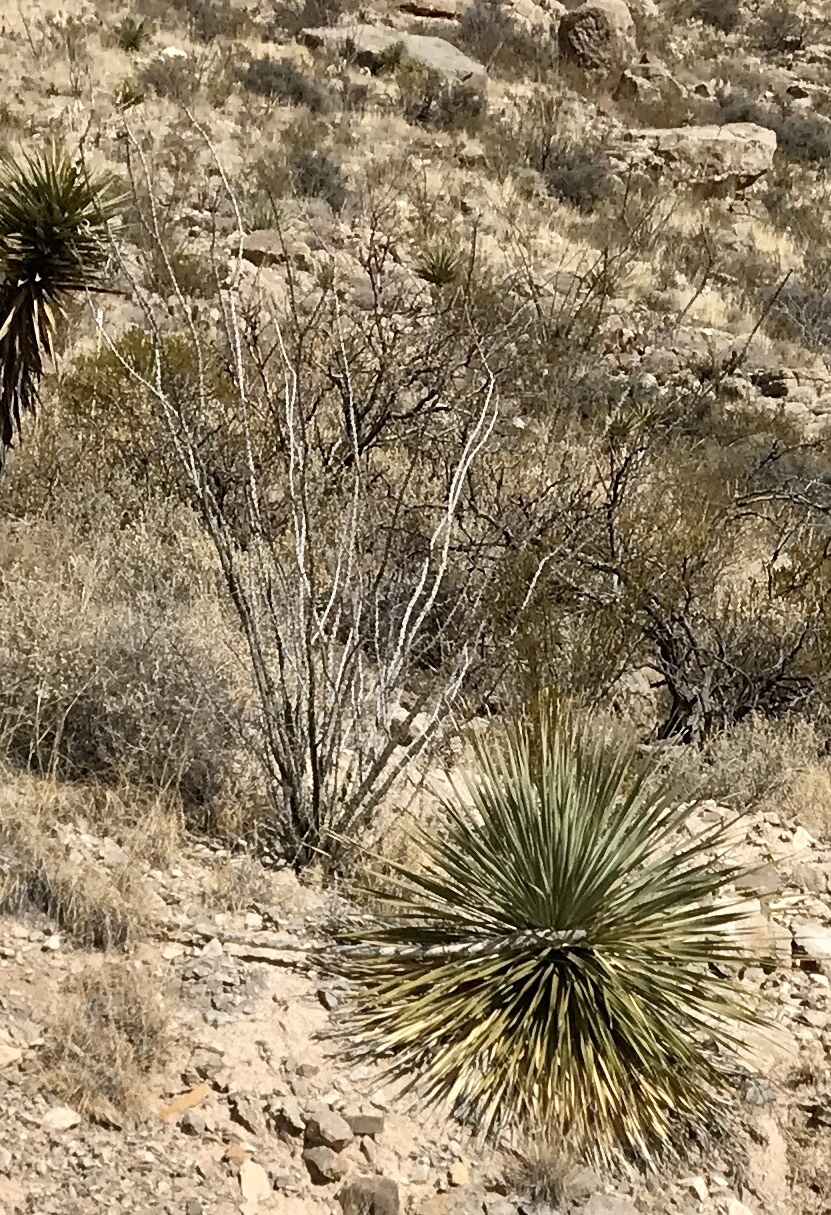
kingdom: Plantae
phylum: Tracheophyta
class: Magnoliopsida
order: Ericales
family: Fouquieriaceae
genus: Fouquieria
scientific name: Fouquieria splendens
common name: Vine-cactus
